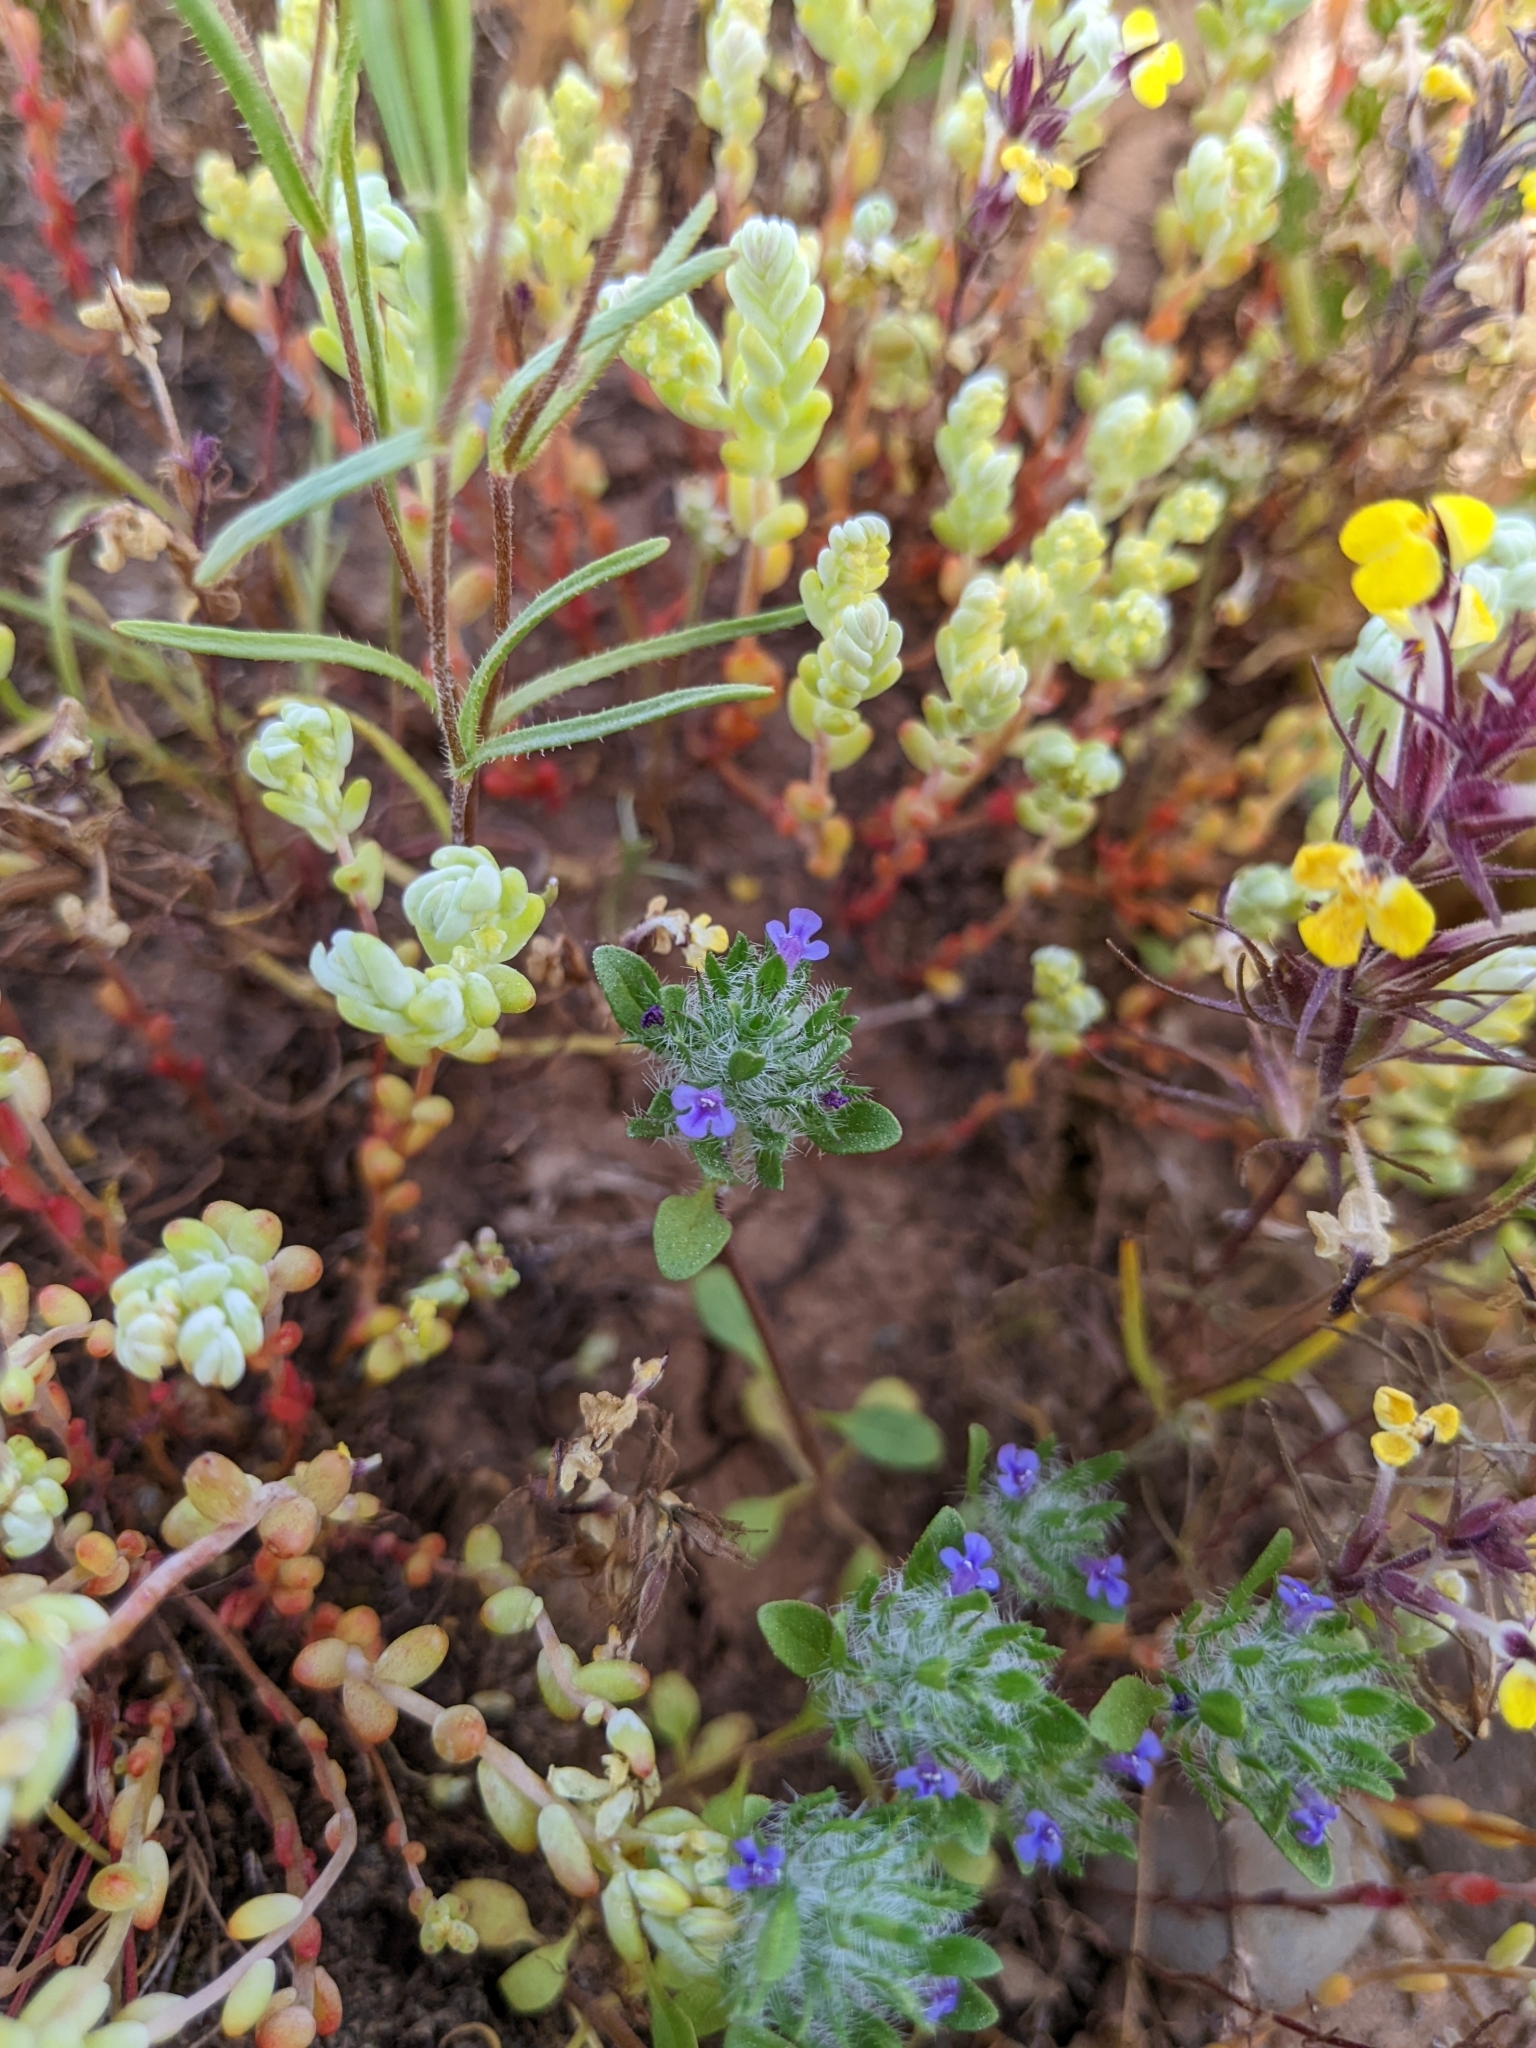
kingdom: Plantae
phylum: Tracheophyta
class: Magnoliopsida
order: Lamiales
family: Lamiaceae
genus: Pogogyne
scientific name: Pogogyne zizyphoroides
